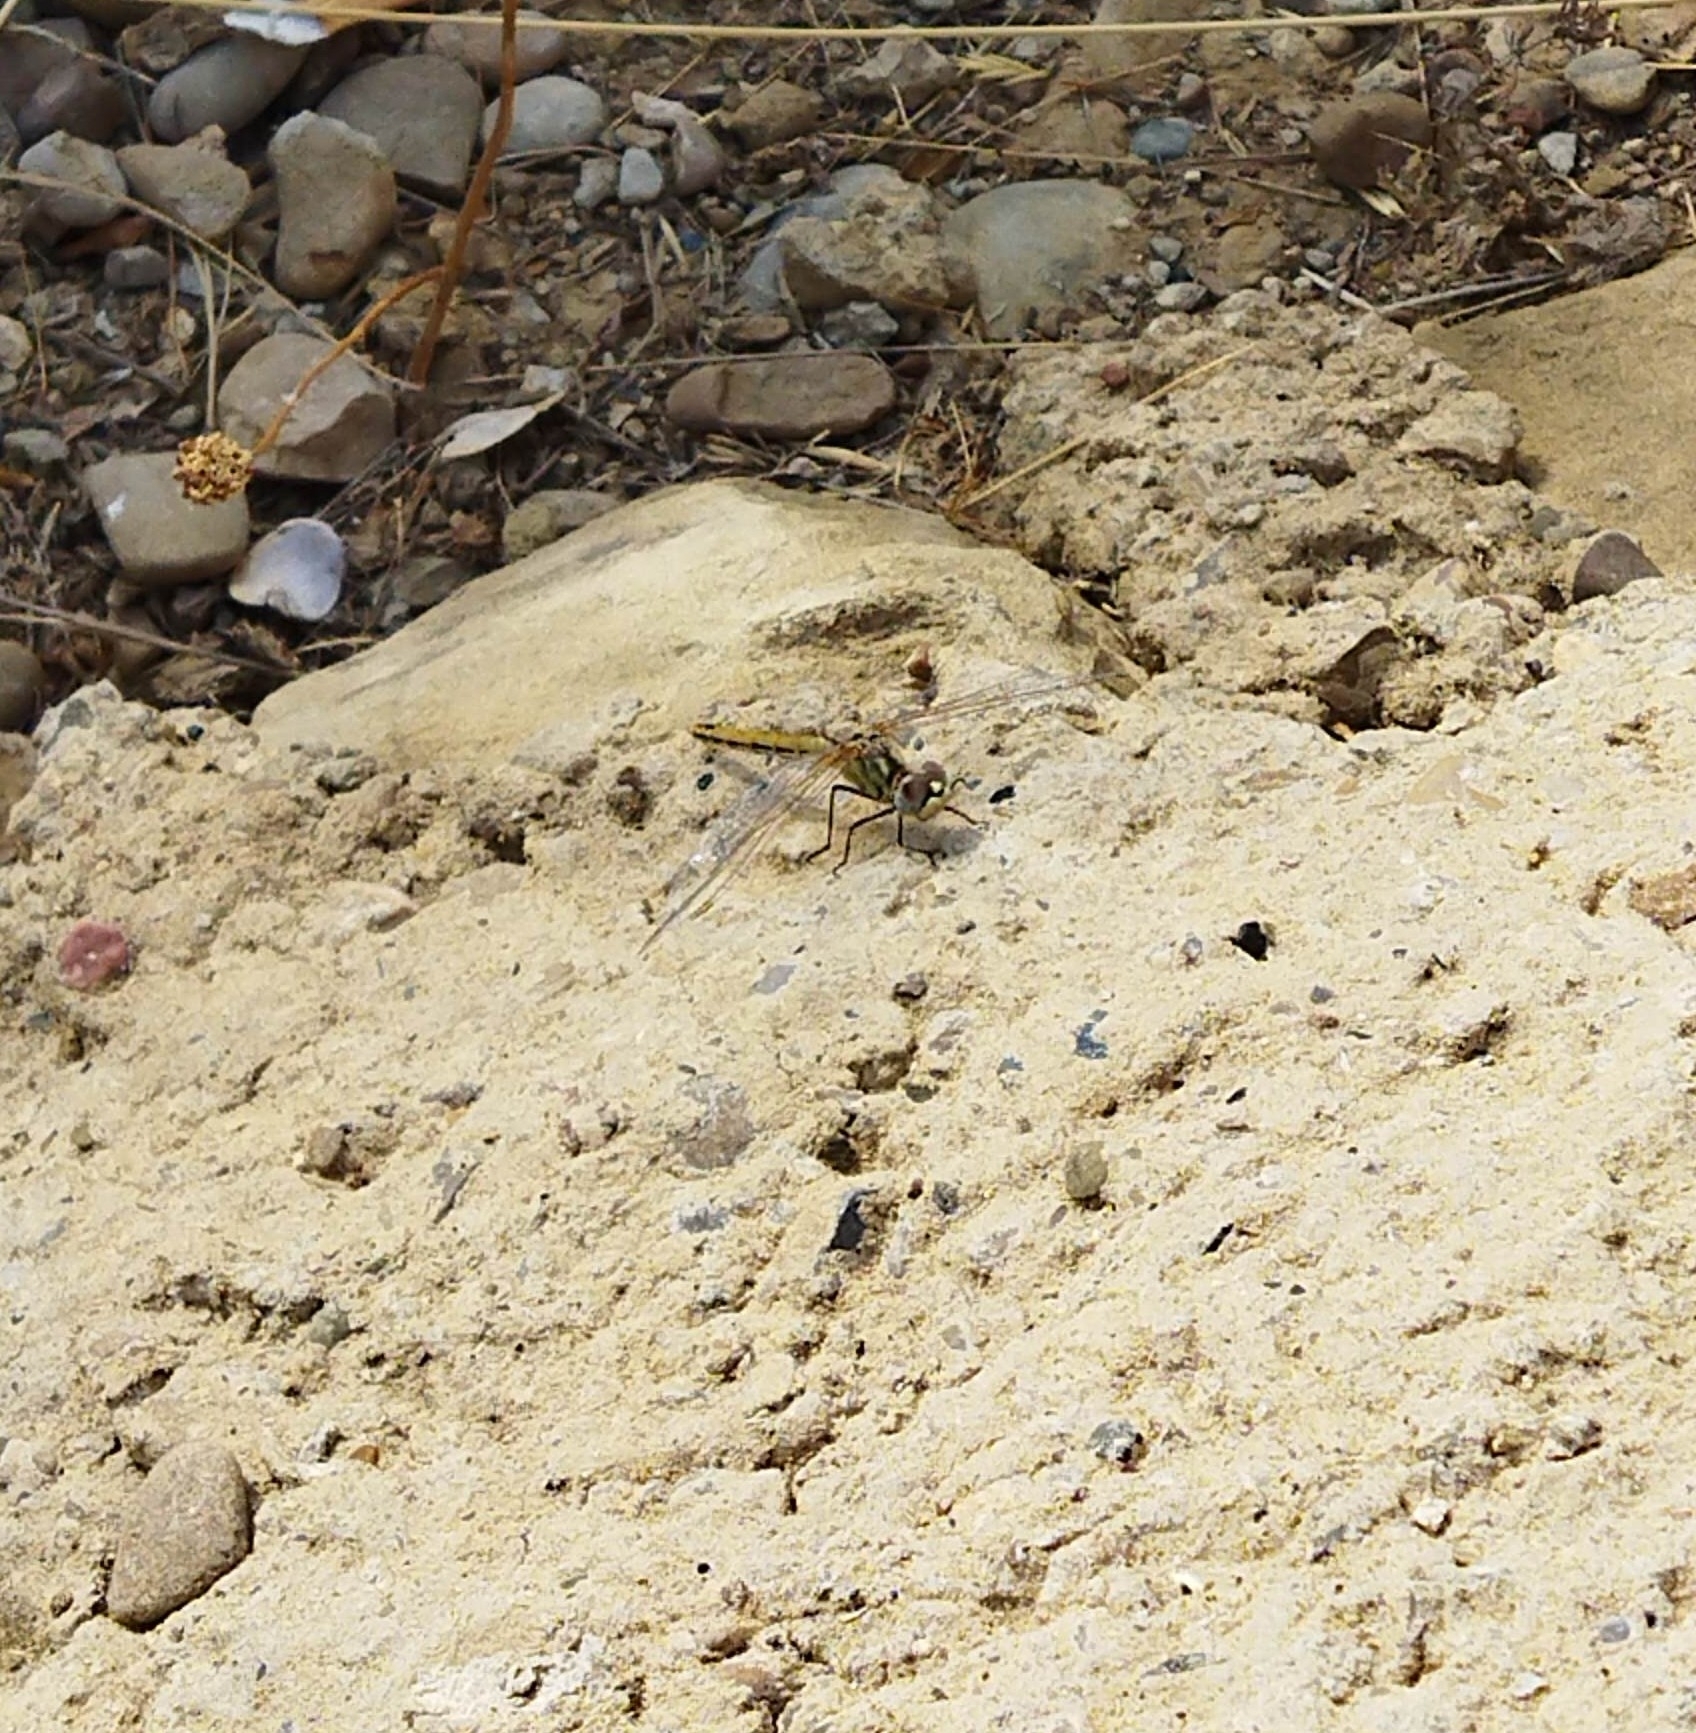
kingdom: Animalia
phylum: Arthropoda
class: Insecta
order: Odonata
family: Libellulidae
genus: Sympetrum
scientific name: Sympetrum fonscolombii
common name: Red-veined darter
